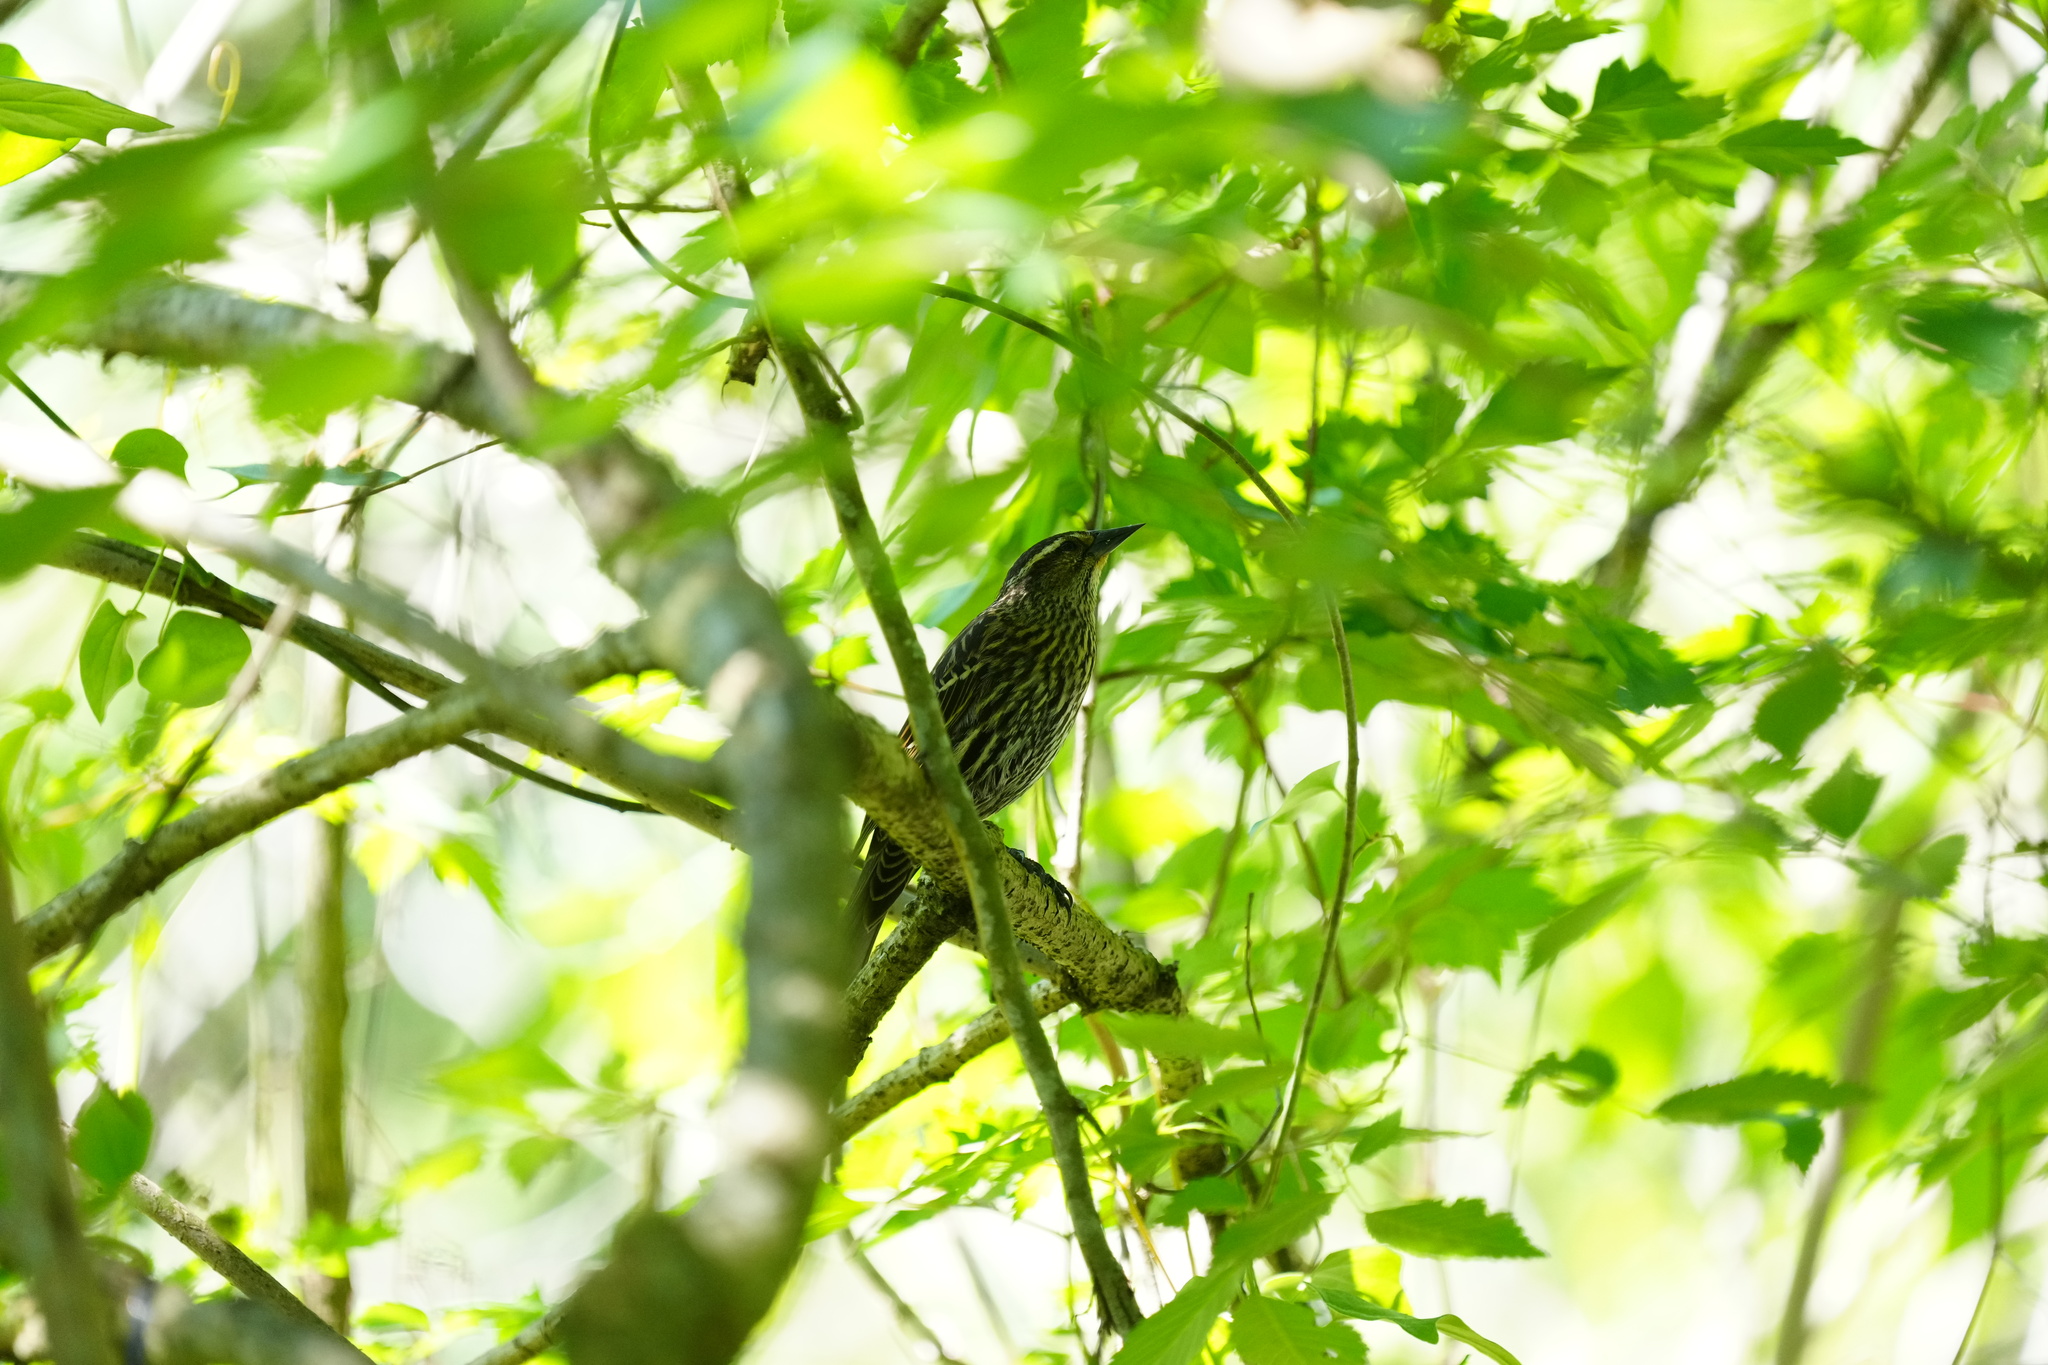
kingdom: Animalia
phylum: Chordata
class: Aves
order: Passeriformes
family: Icteridae
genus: Agelaius
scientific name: Agelaius phoeniceus
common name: Red-winged blackbird
